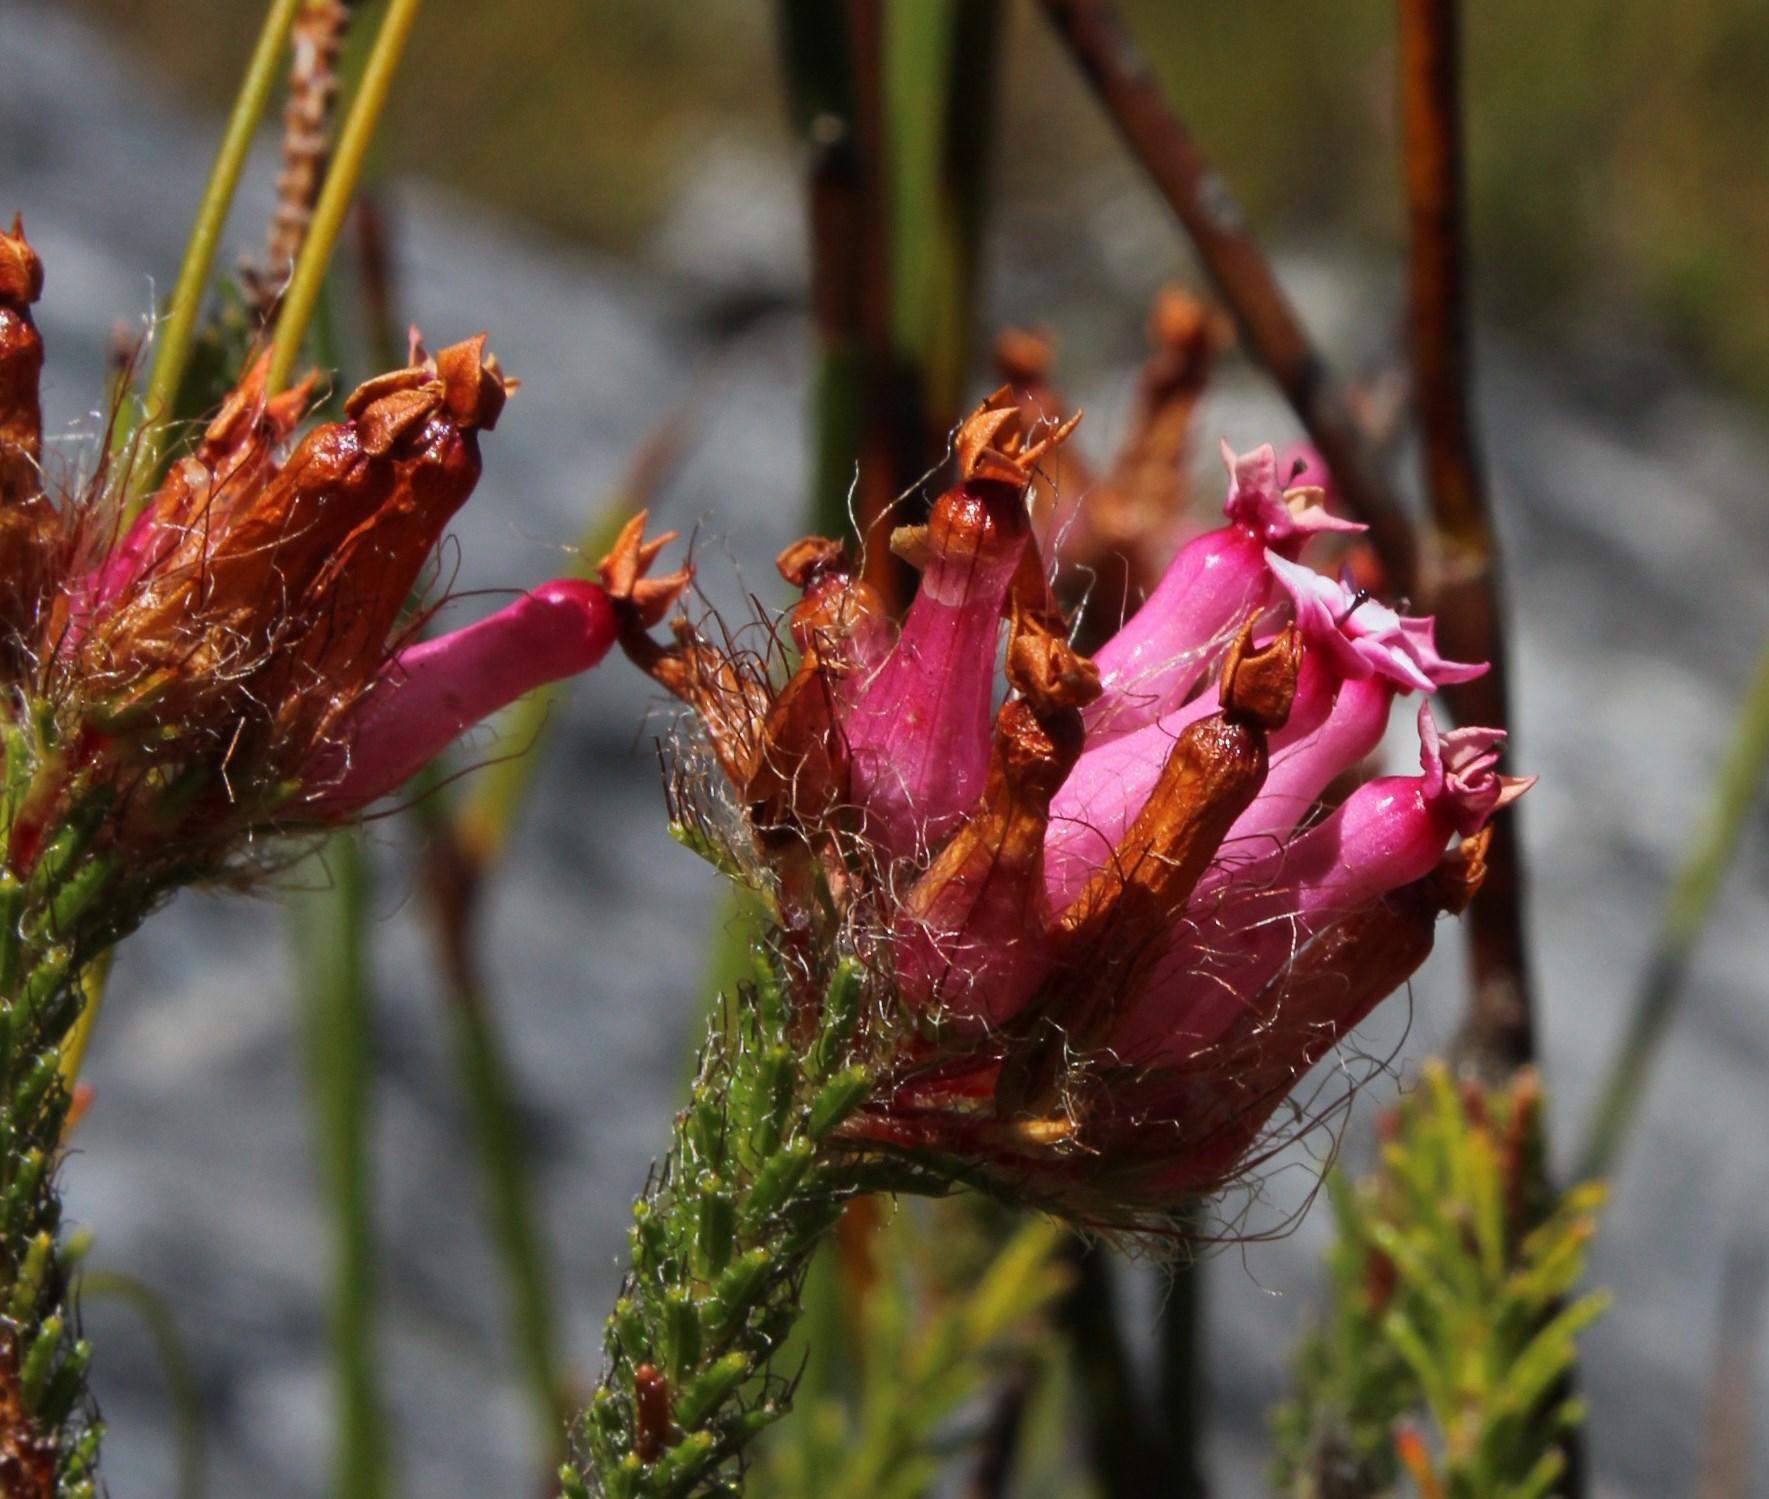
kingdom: Plantae
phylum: Tracheophyta
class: Magnoliopsida
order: Ericales
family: Ericaceae
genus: Erica
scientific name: Erica gysbertii
